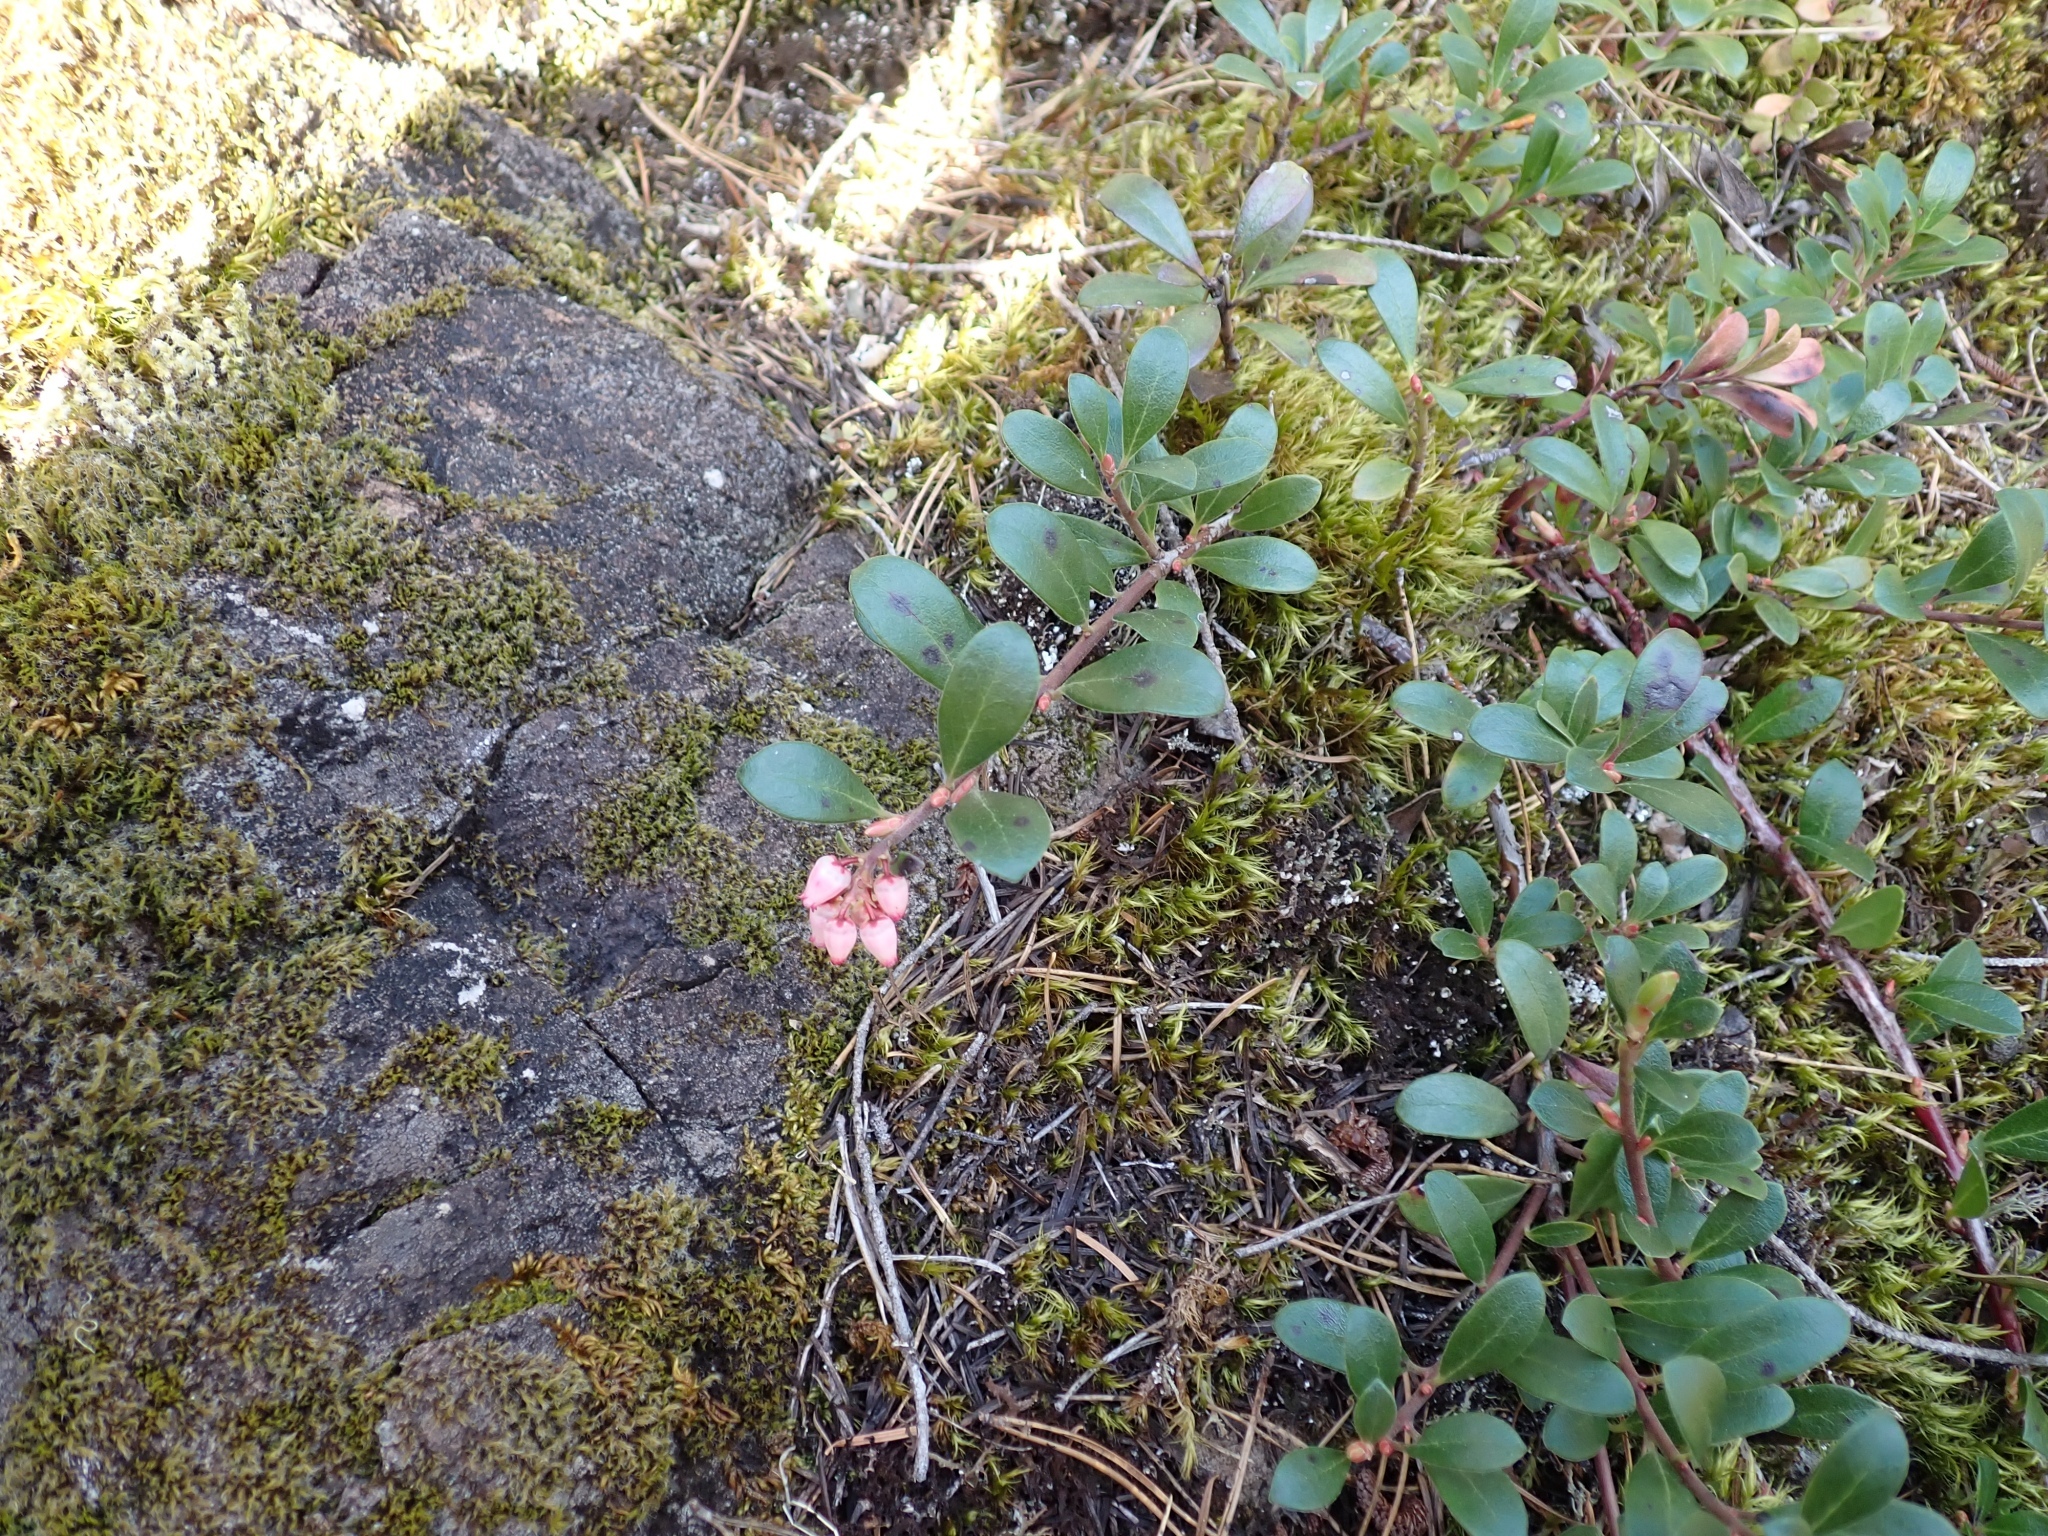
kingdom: Plantae
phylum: Tracheophyta
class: Magnoliopsida
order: Ericales
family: Ericaceae
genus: Arctostaphylos
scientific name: Arctostaphylos uva-ursi
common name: Bearberry
